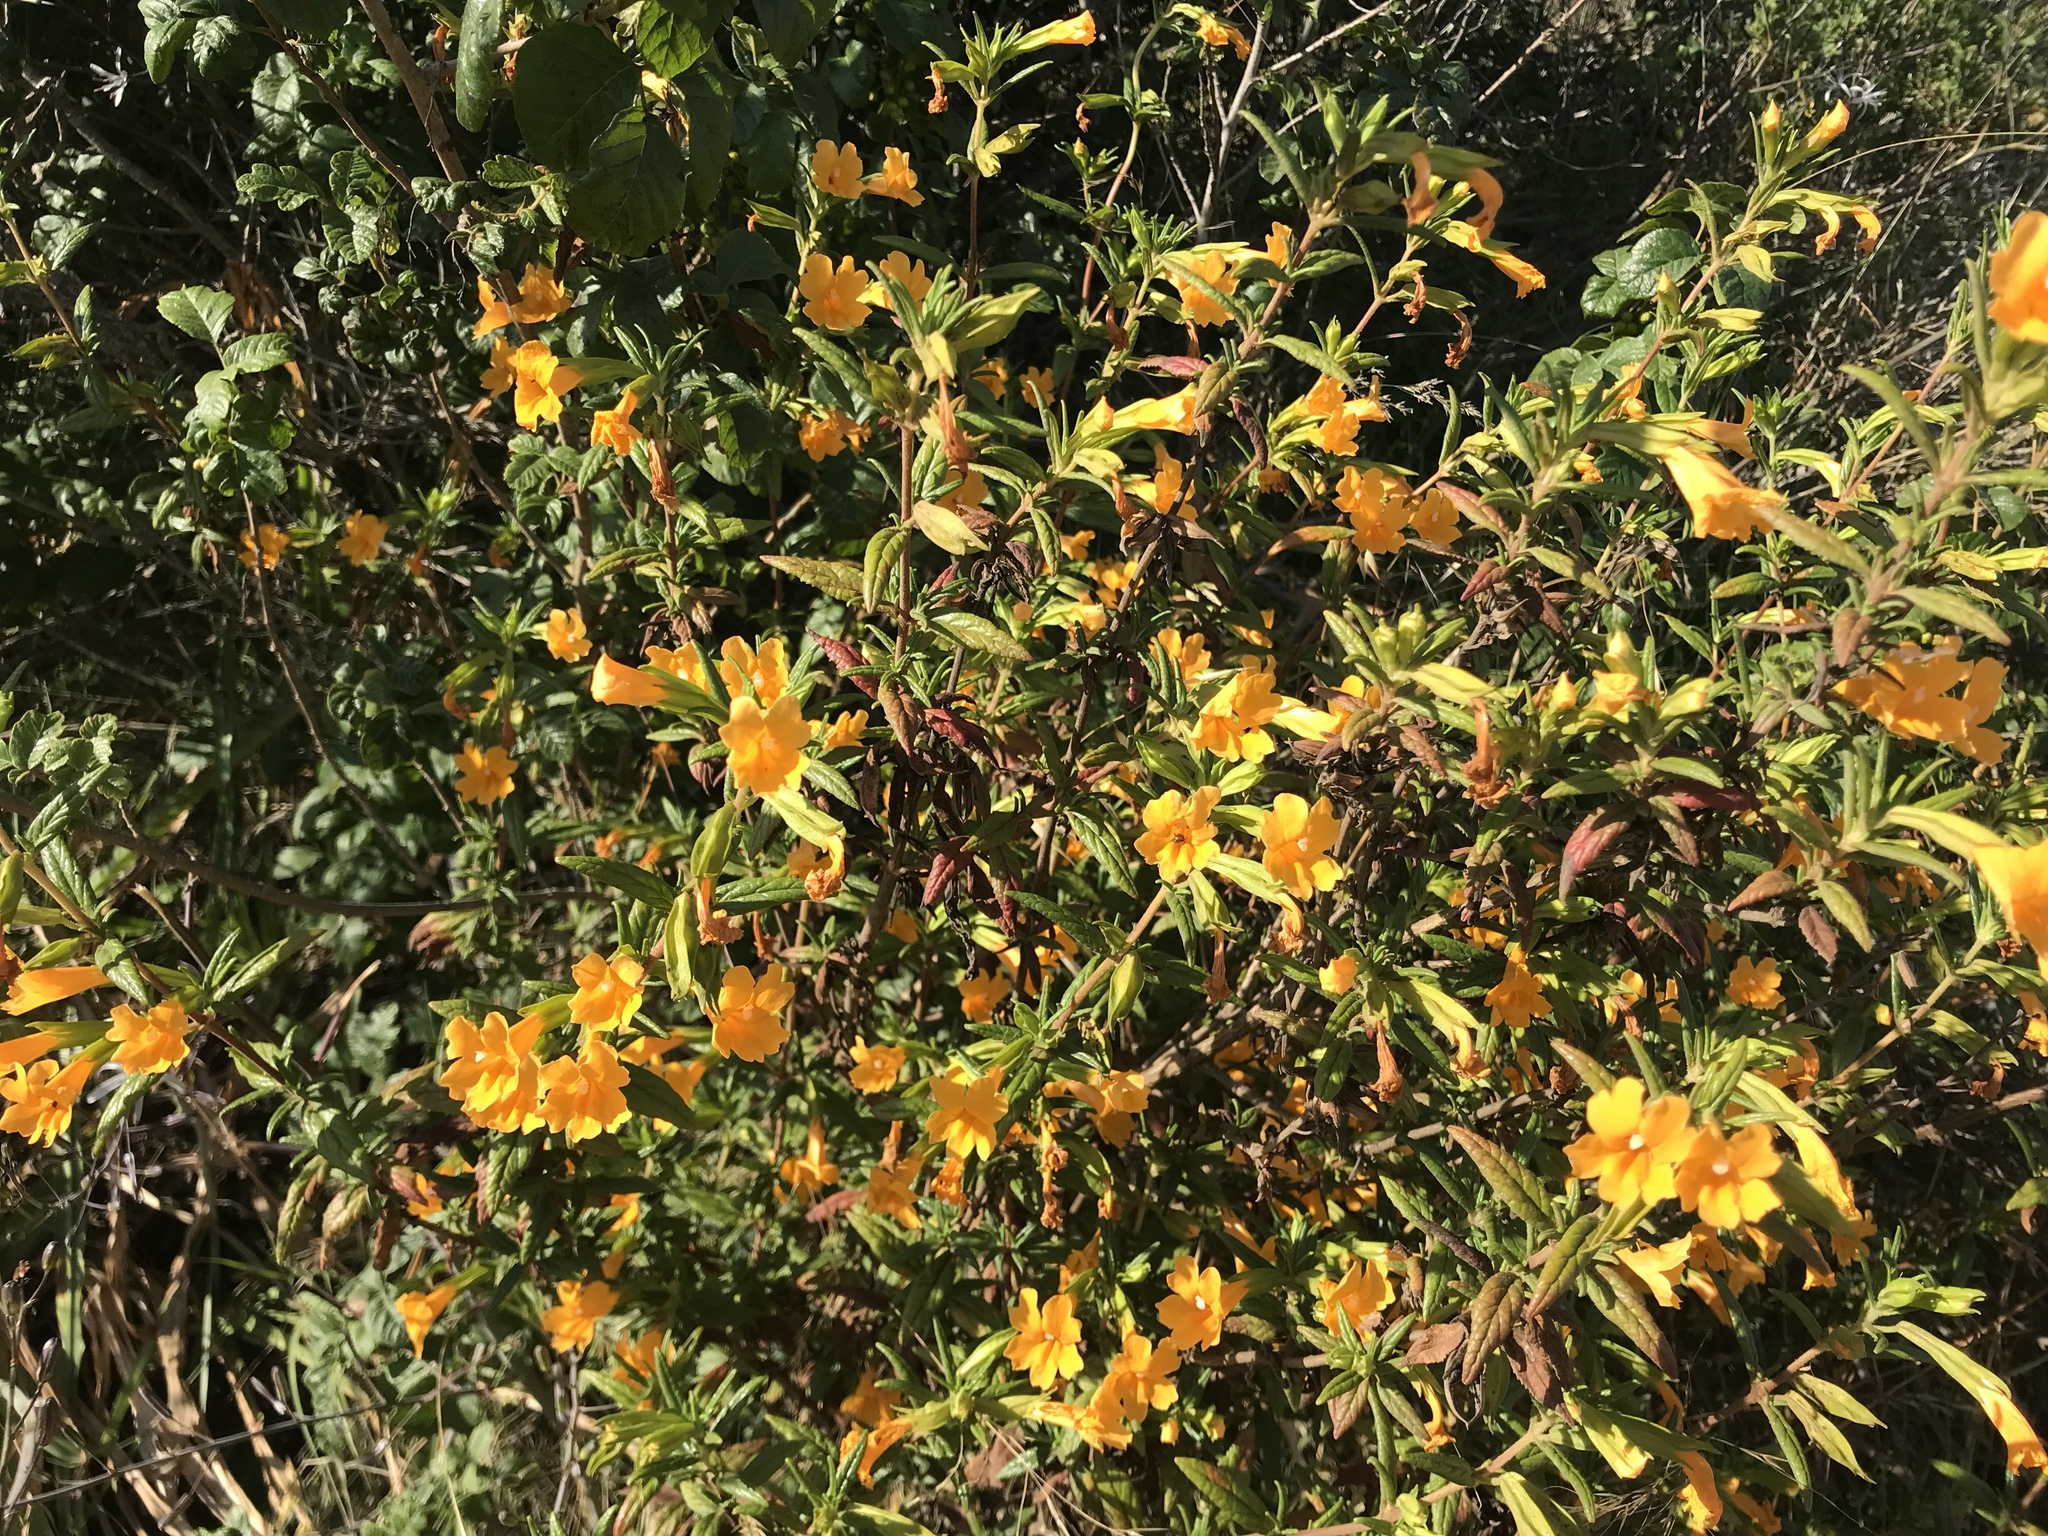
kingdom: Plantae
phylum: Tracheophyta
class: Magnoliopsida
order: Lamiales
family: Phrymaceae
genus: Diplacus
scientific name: Diplacus aurantiacus
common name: Bush monkey-flower
